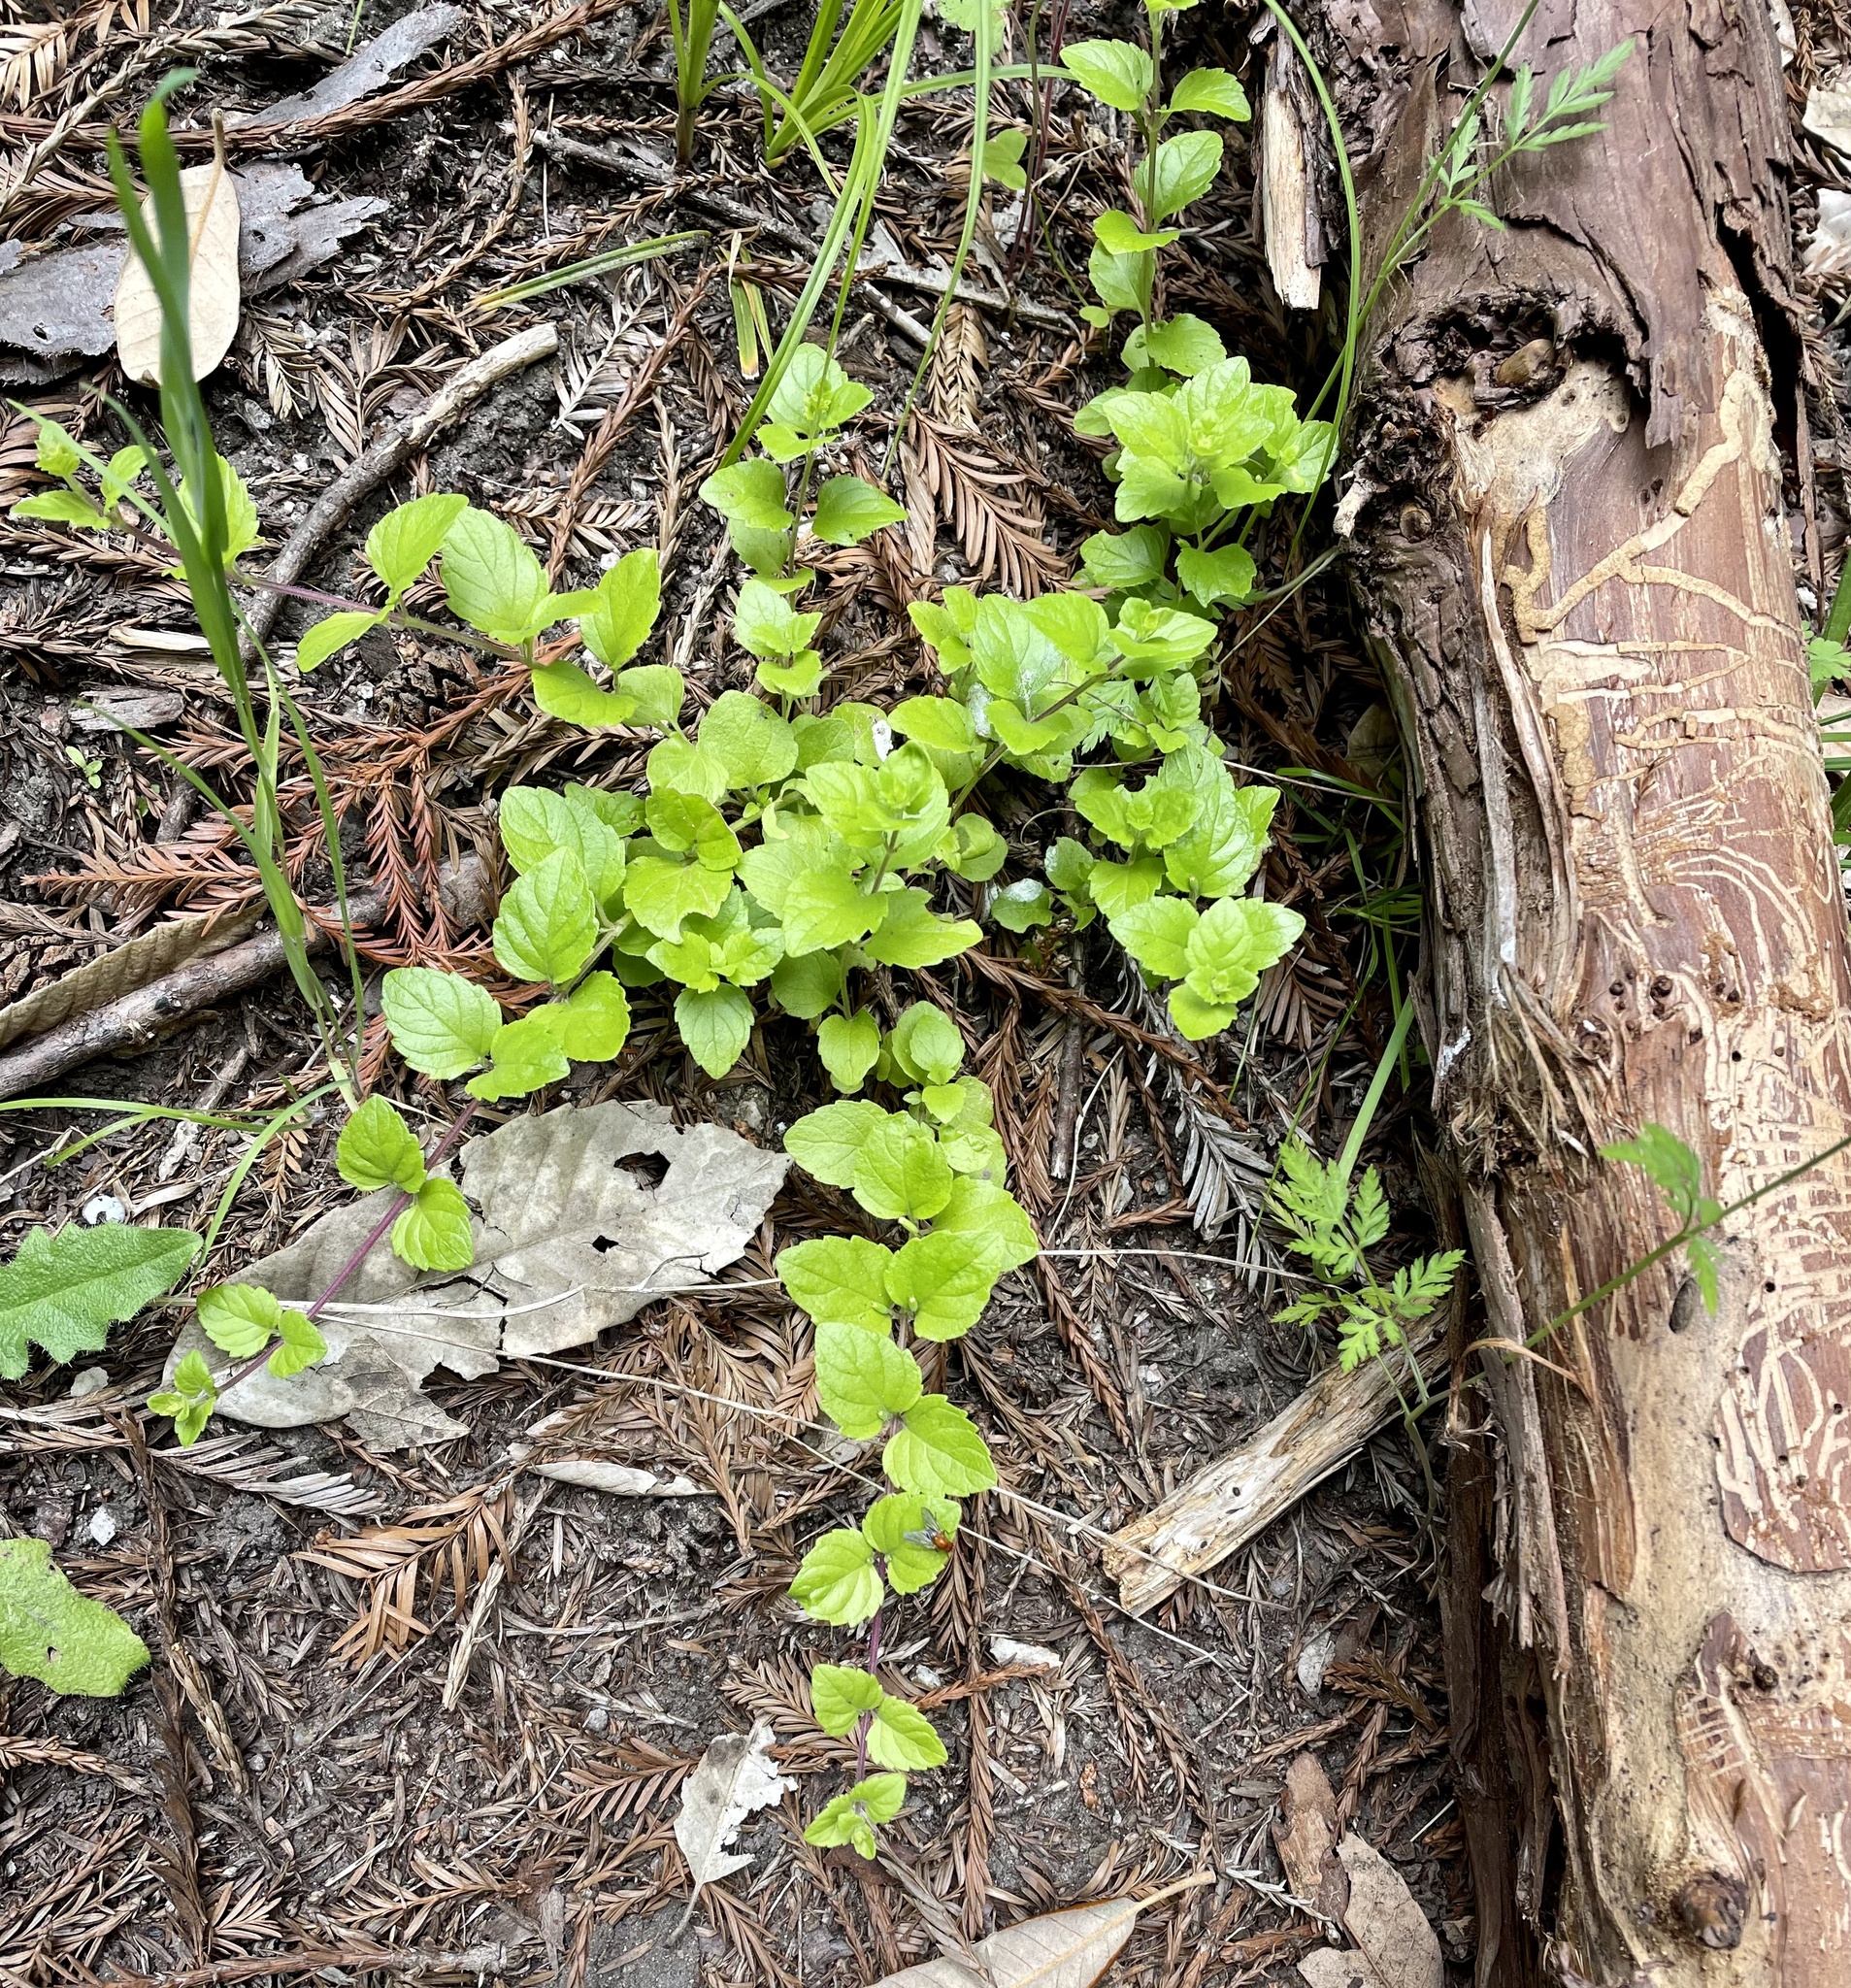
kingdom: Plantae
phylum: Tracheophyta
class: Magnoliopsida
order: Lamiales
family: Lamiaceae
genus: Micromeria
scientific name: Micromeria douglasii
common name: Yerba buena
